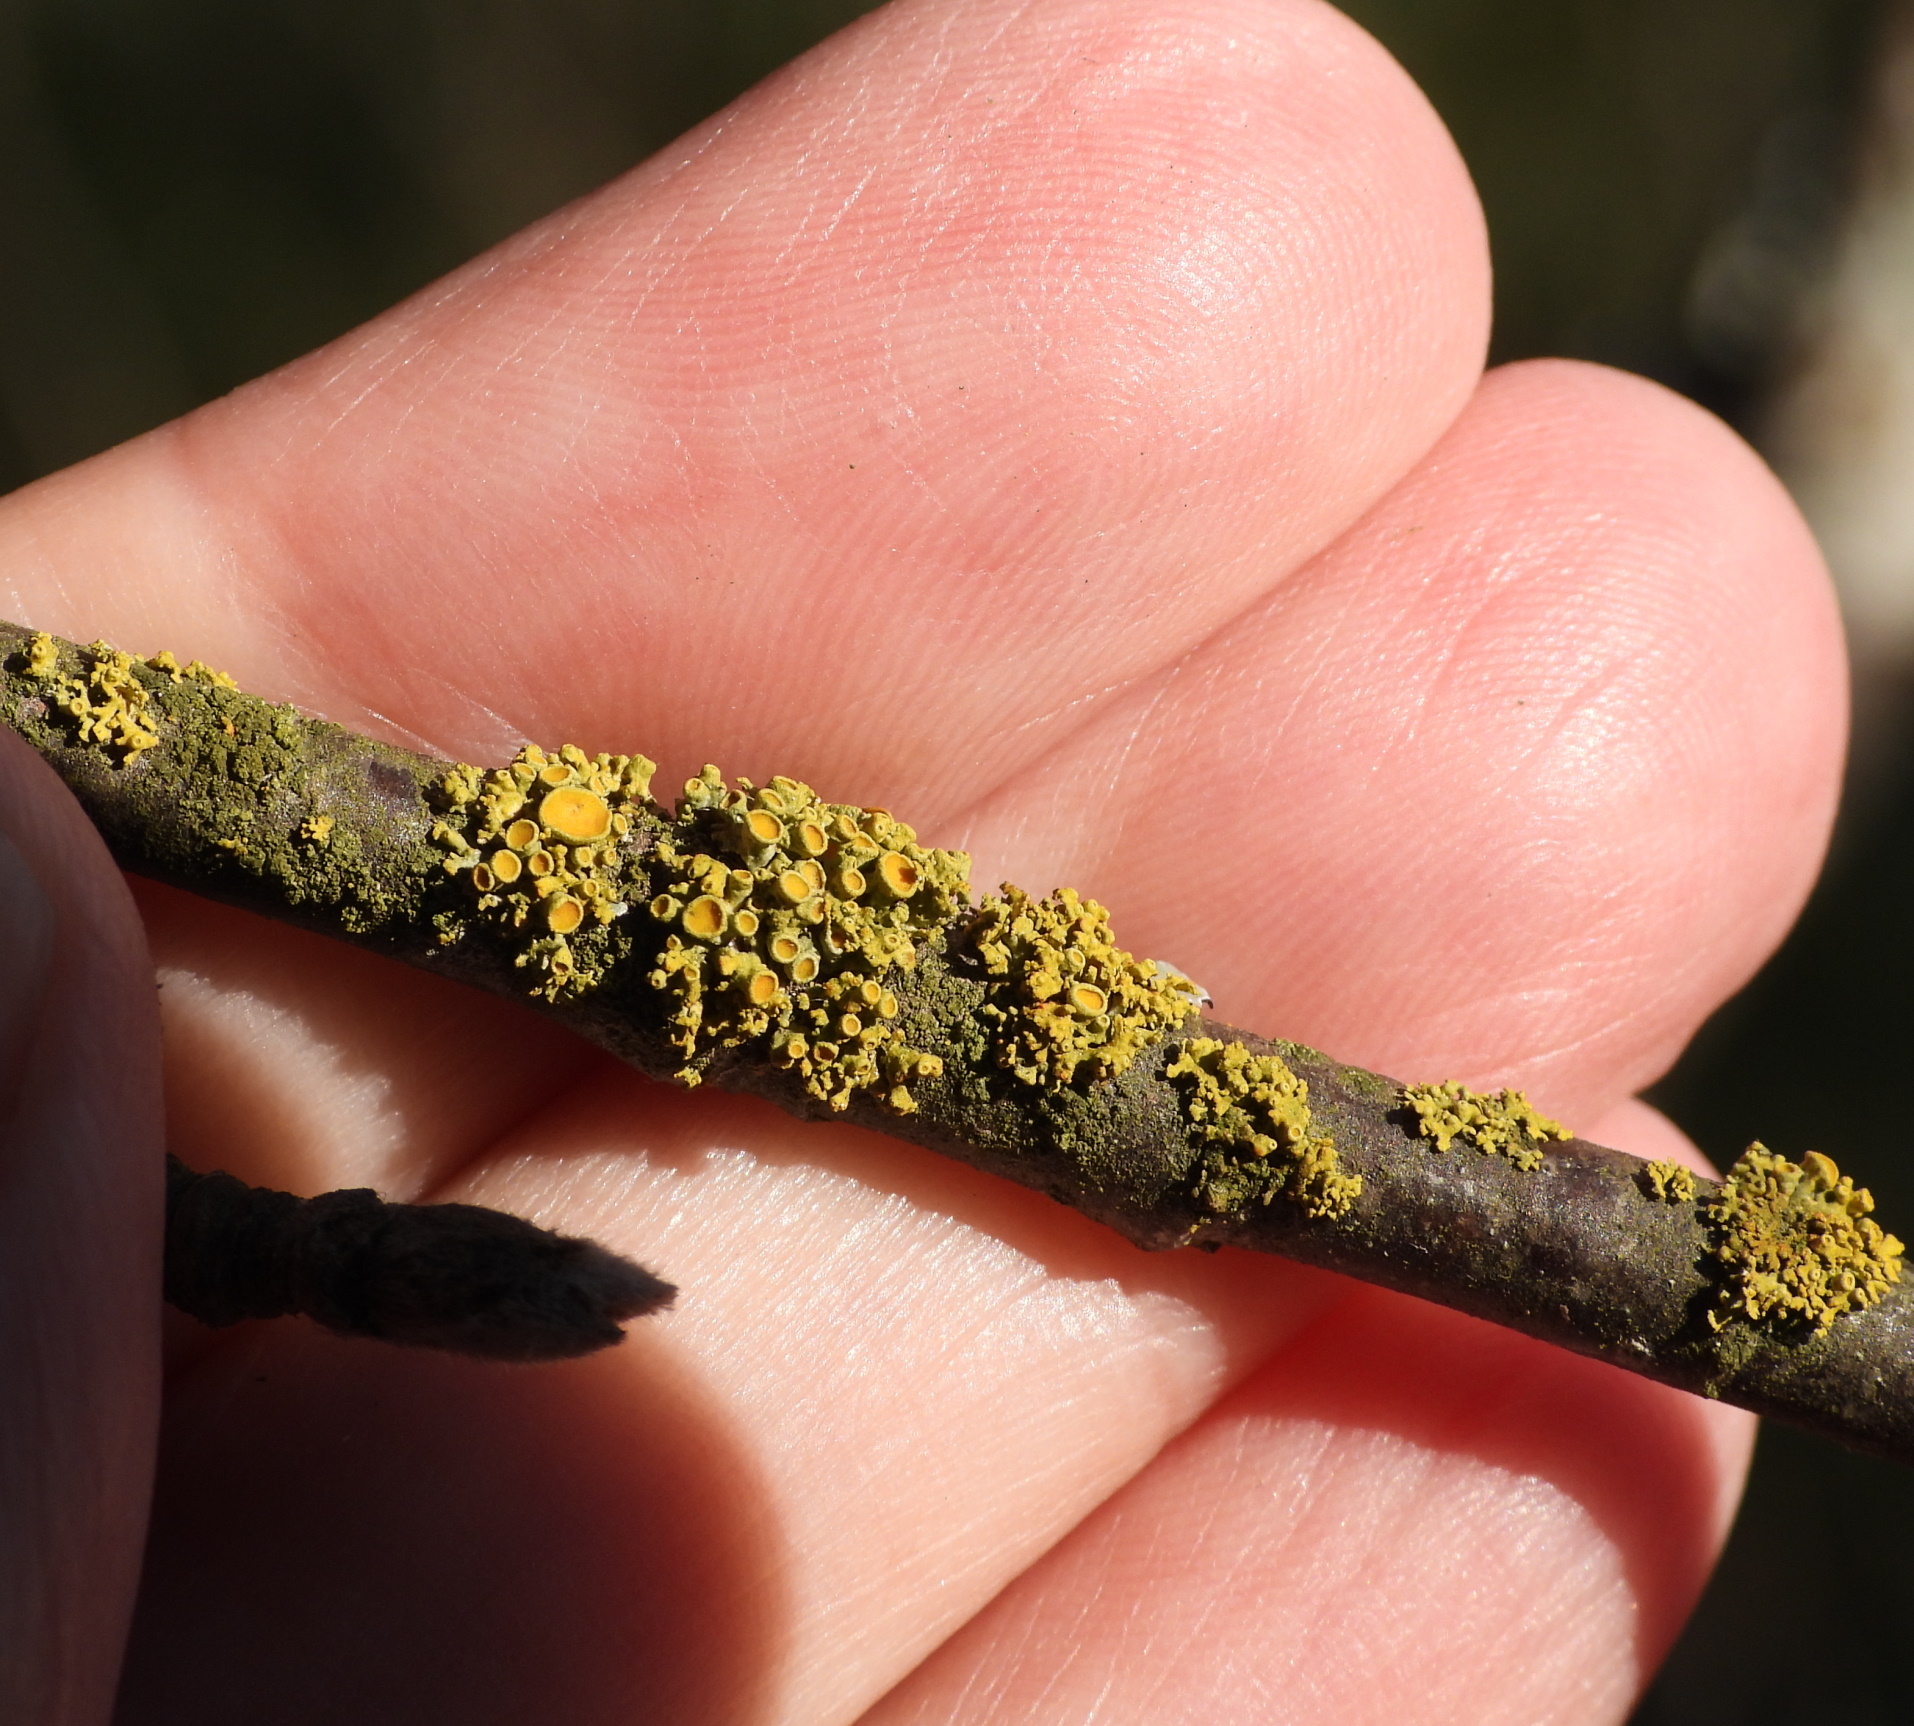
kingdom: Fungi
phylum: Ascomycota
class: Lecanoromycetes
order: Teloschistales
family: Teloschistaceae
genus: Polycauliona
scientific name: Polycauliona polycarpa
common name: Pin-cushion sunburst lichen
